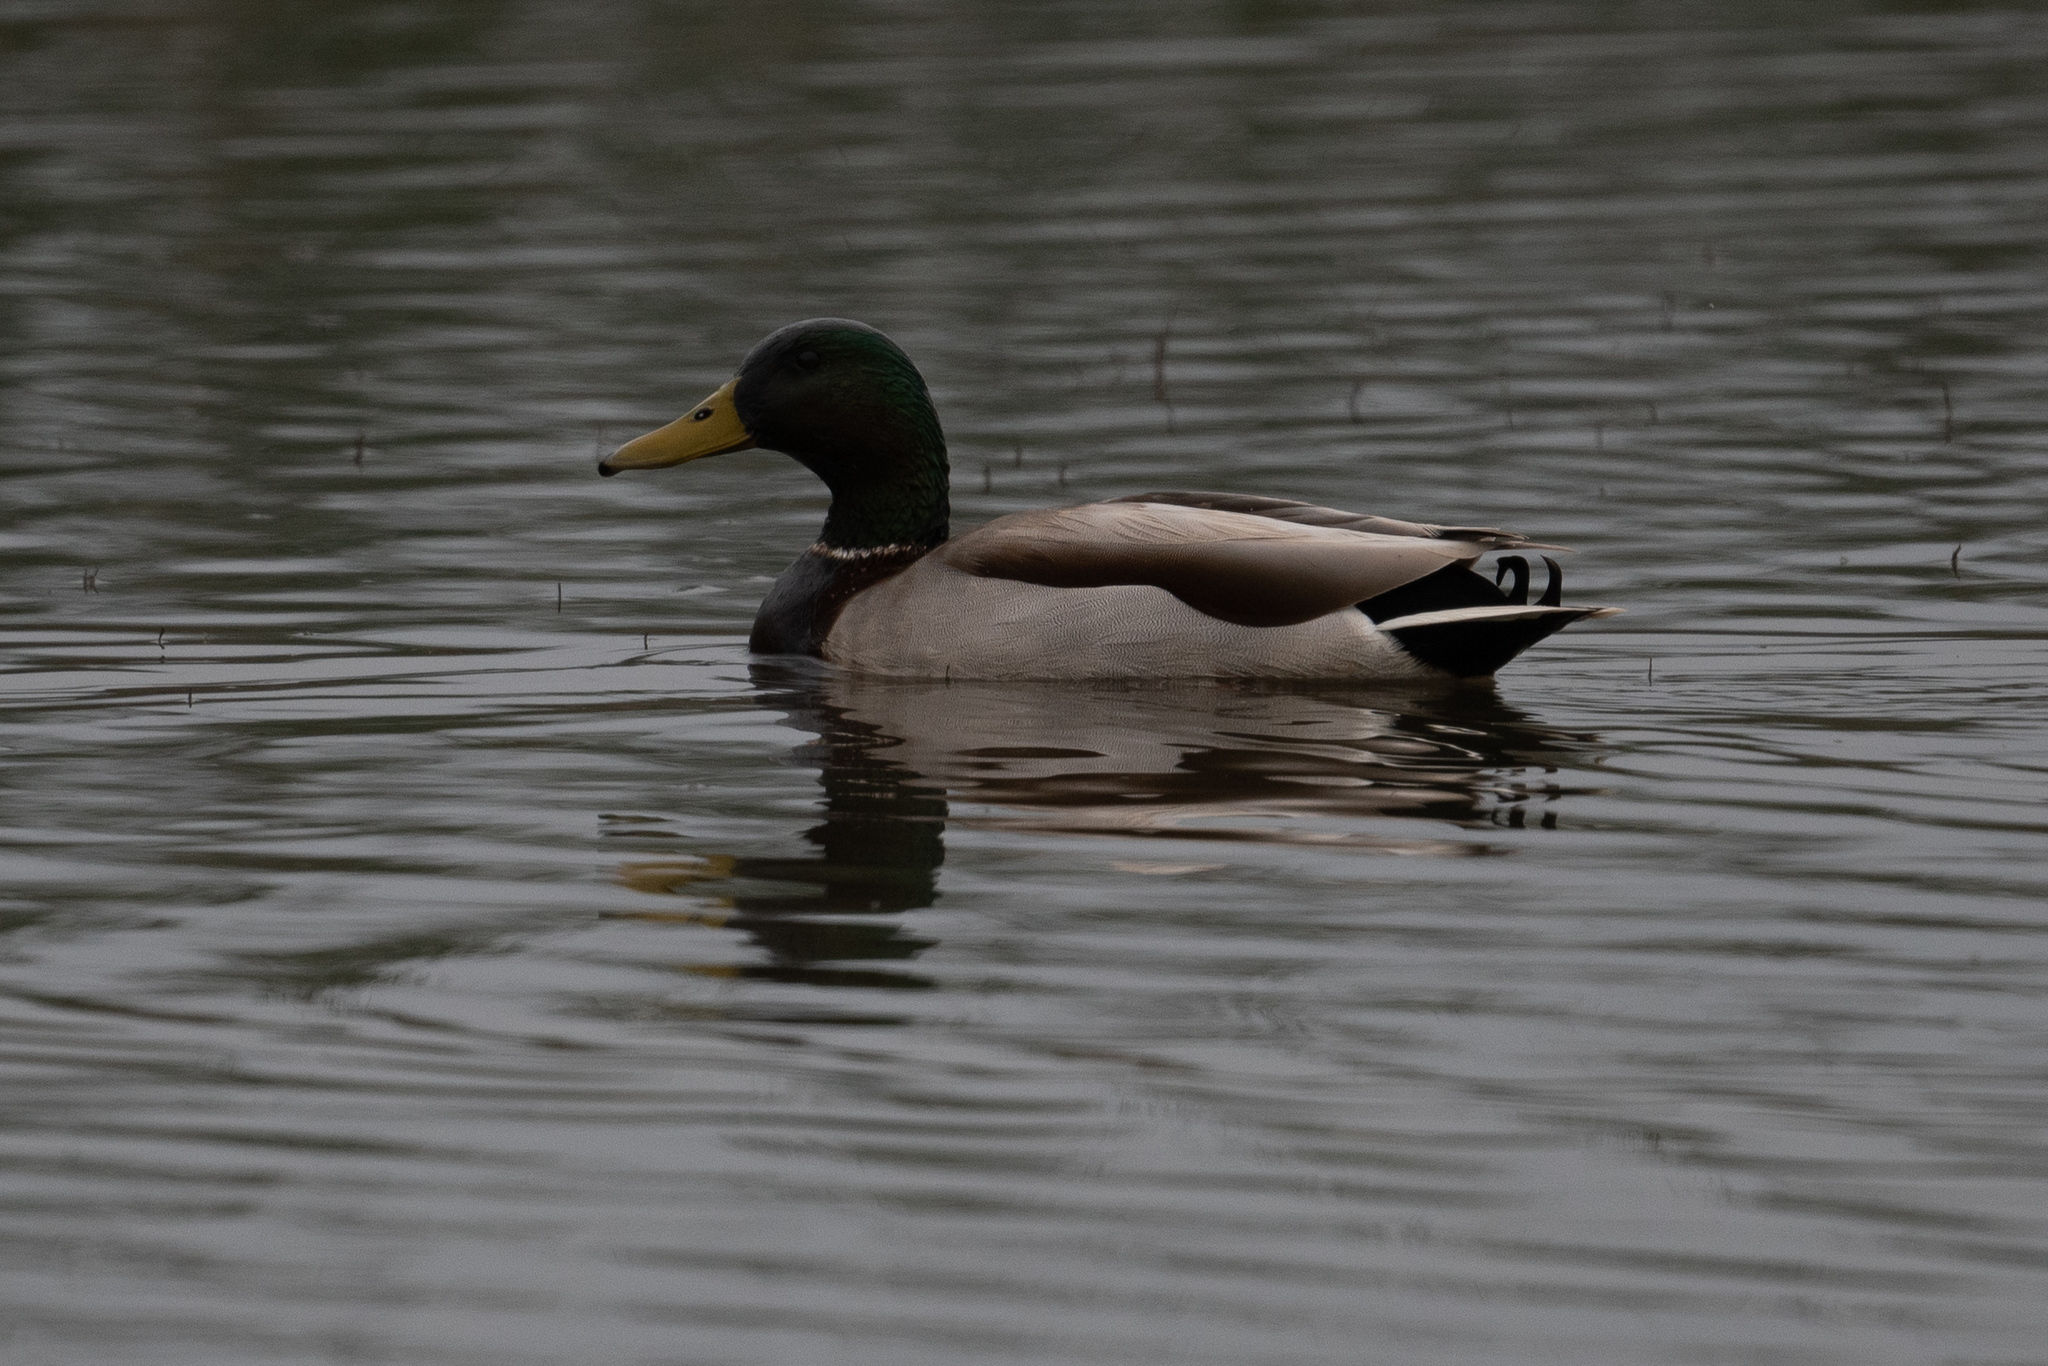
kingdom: Animalia
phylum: Chordata
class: Aves
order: Anseriformes
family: Anatidae
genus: Anas
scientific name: Anas platyrhynchos
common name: Mallard
